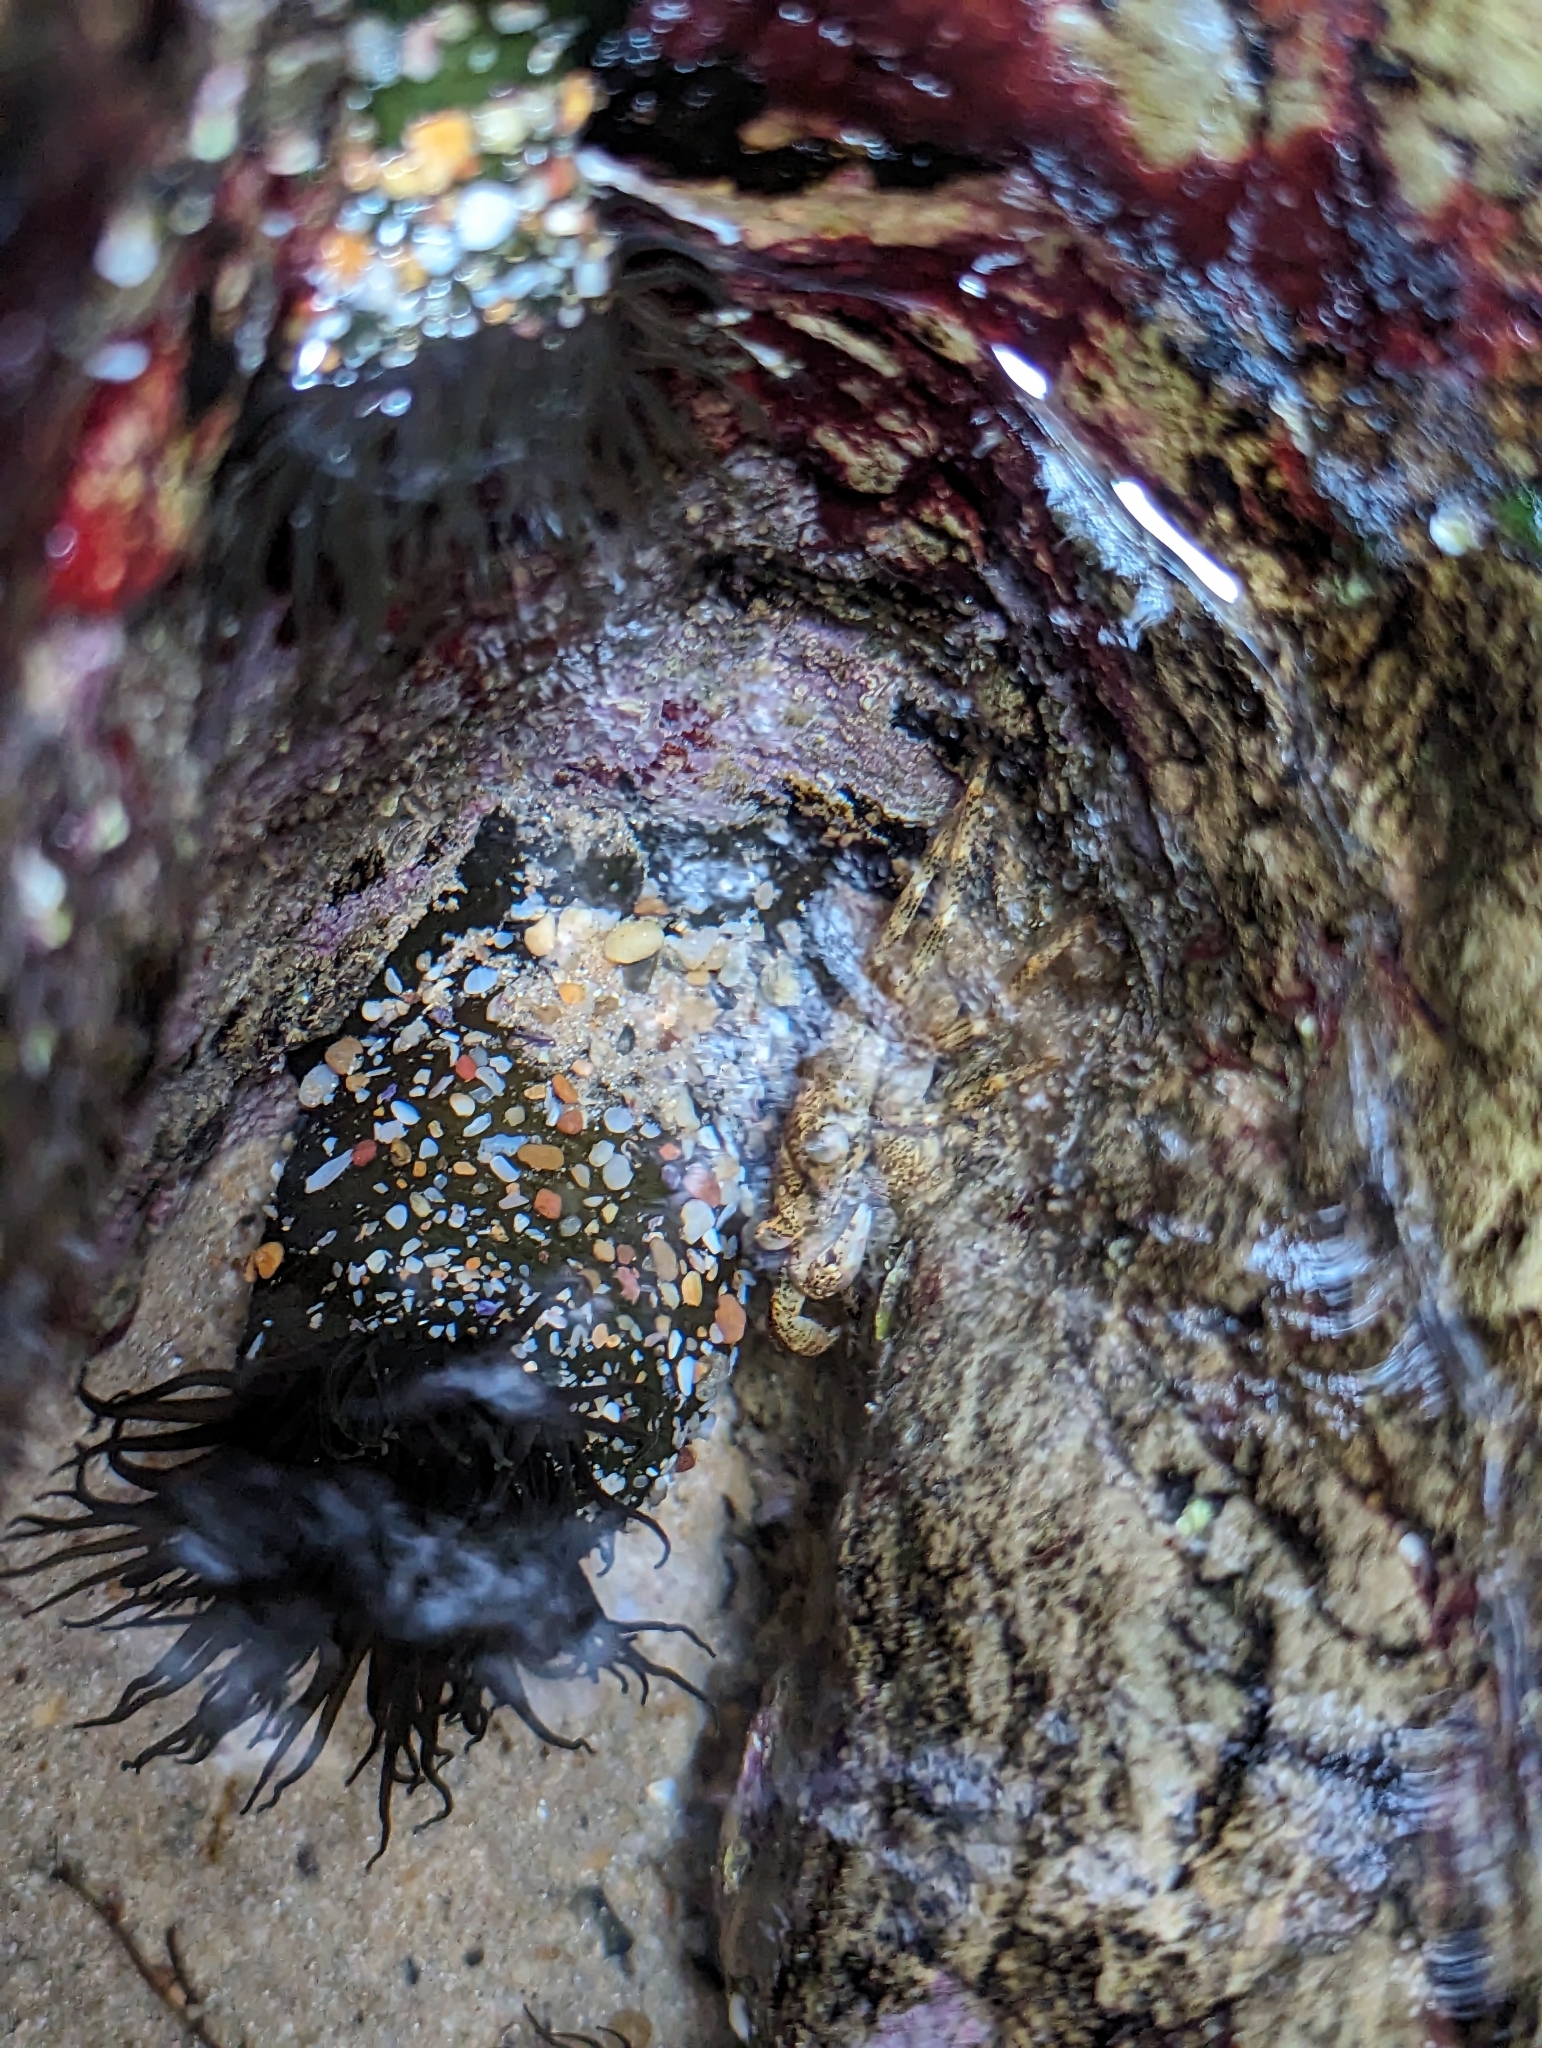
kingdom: Animalia
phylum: Cnidaria
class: Anthozoa
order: Actiniaria
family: Actiniidae
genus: Aulactinia
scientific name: Aulactinia veratra
